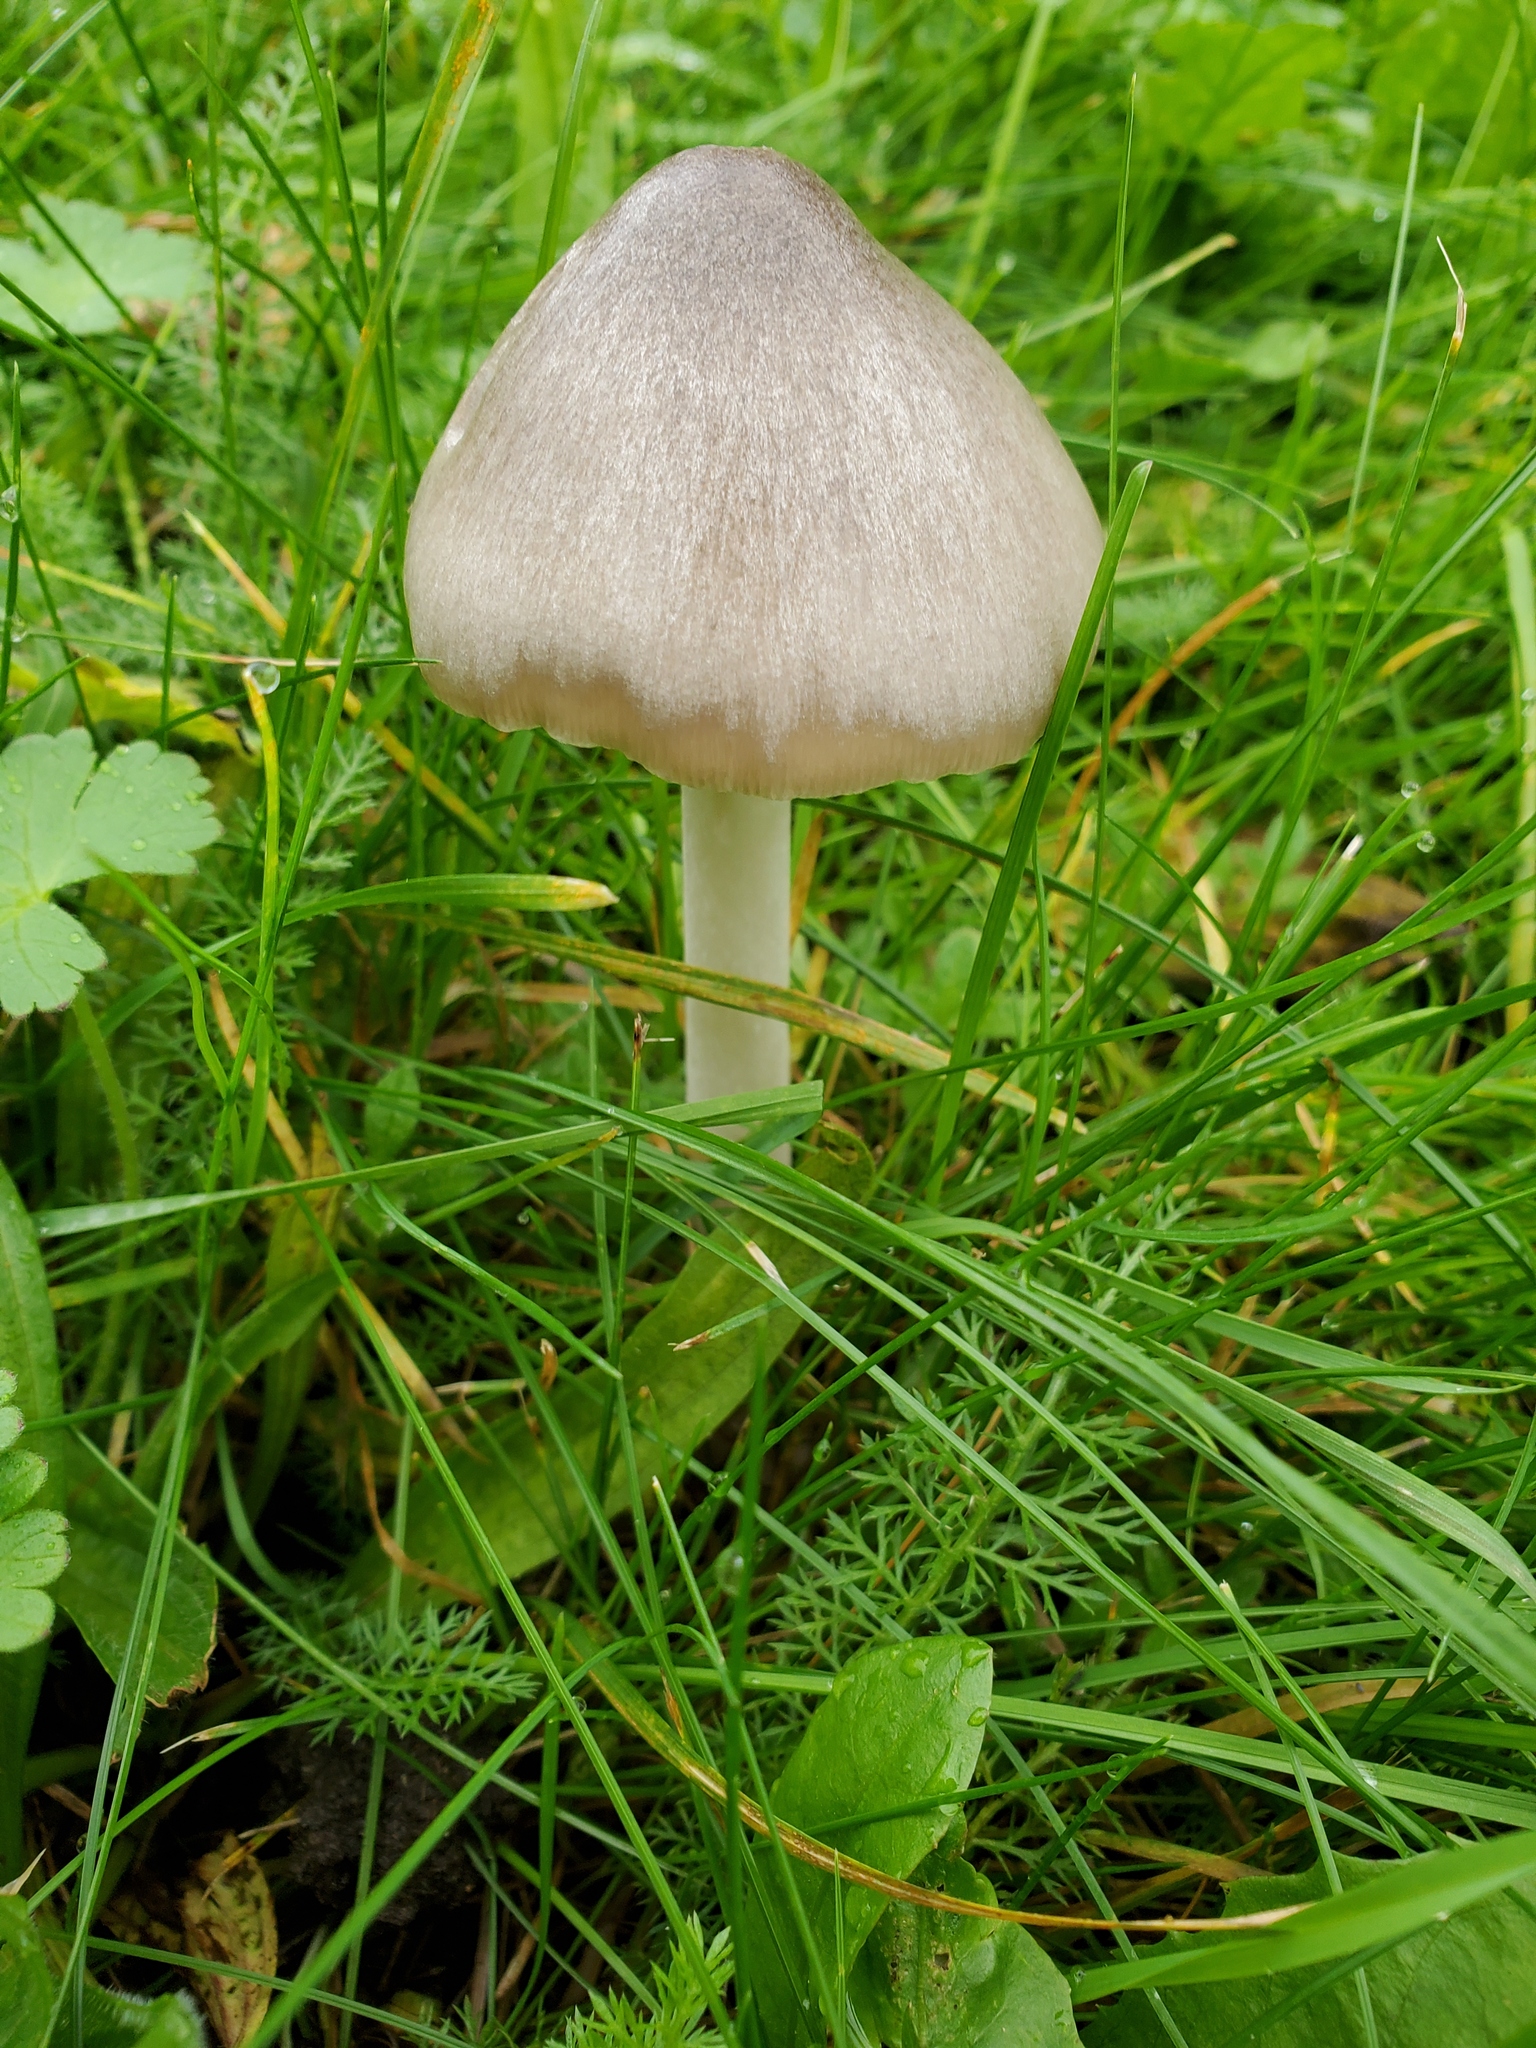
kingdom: Fungi
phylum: Basidiomycota
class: Agaricomycetes
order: Agaricales
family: Pluteaceae
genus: Volvopluteus
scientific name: Volvopluteus gloiocephalus
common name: Stubble rosegill
